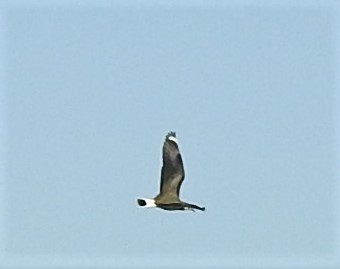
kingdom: Animalia
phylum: Chordata
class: Aves
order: Charadriiformes
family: Charadriidae
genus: Vanellus
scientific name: Vanellus vanellus
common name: Northern lapwing
